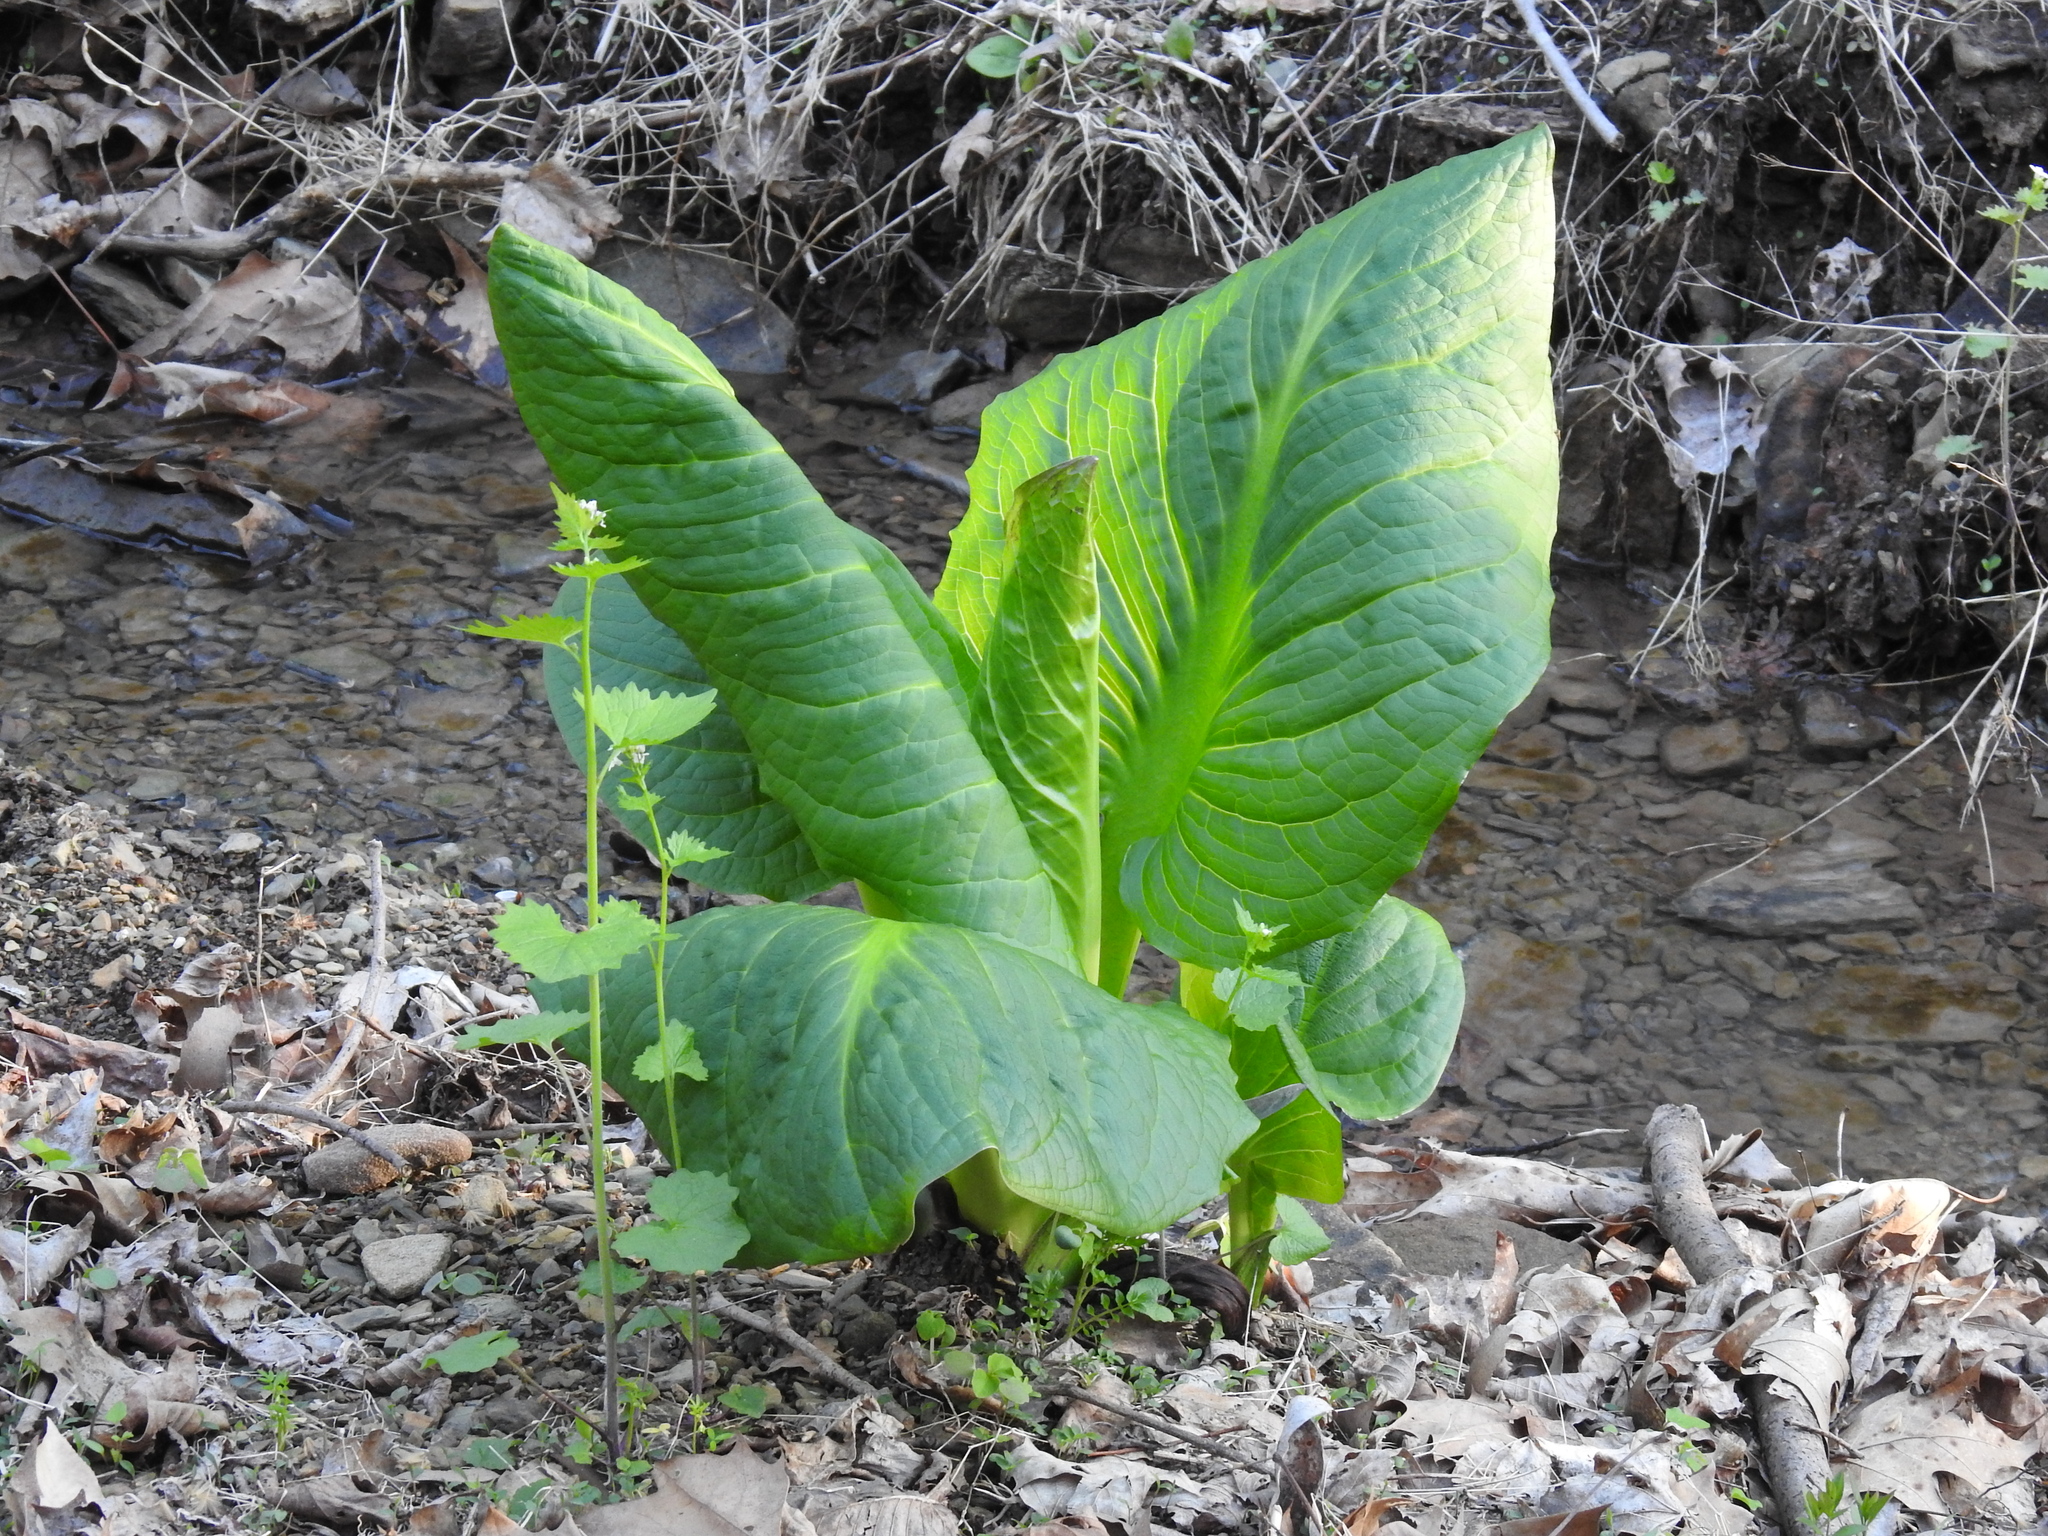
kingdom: Plantae
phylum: Tracheophyta
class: Liliopsida
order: Alismatales
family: Araceae
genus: Symplocarpus
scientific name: Symplocarpus foetidus
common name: Eastern skunk cabbage
